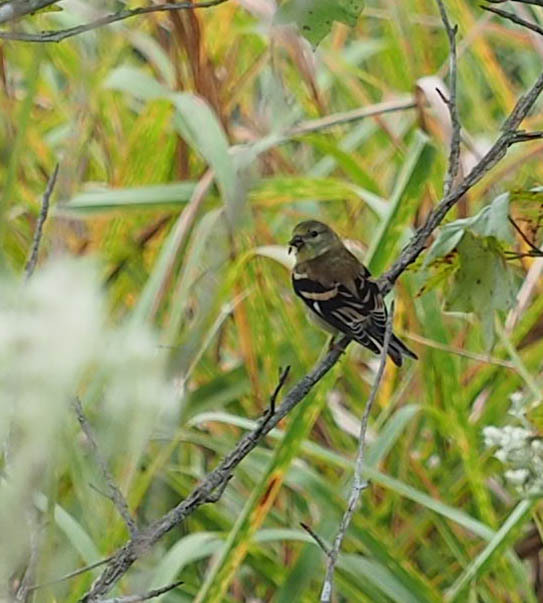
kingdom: Animalia
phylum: Chordata
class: Aves
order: Passeriformes
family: Fringillidae
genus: Spinus
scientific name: Spinus tristis
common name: American goldfinch
